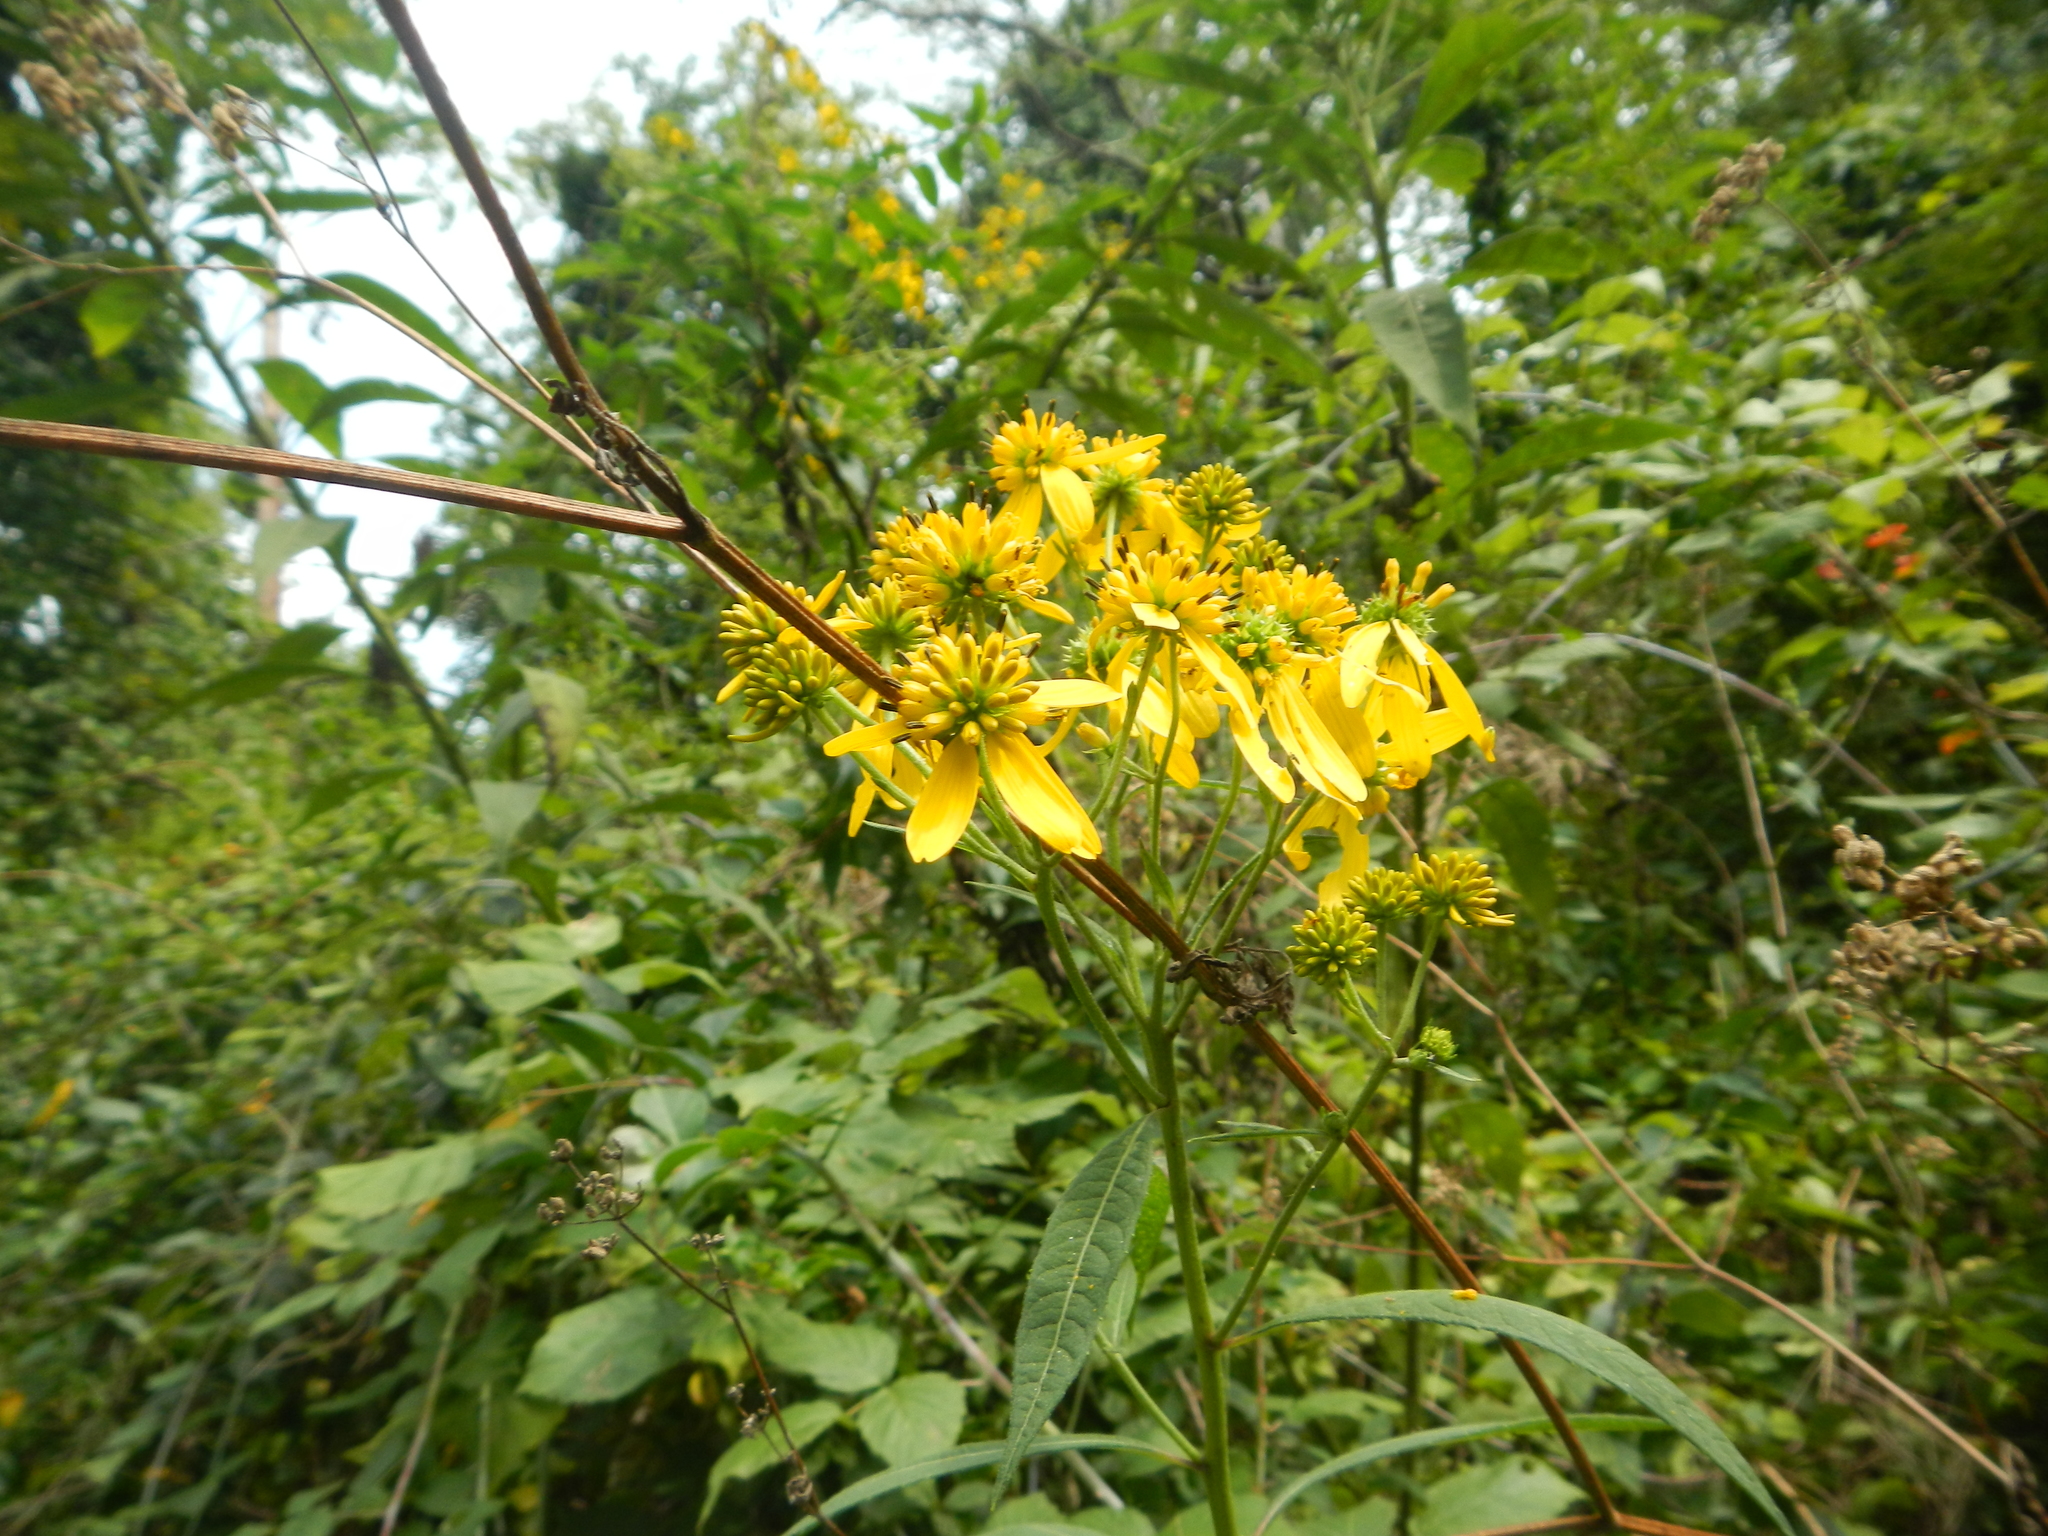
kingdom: Plantae
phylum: Tracheophyta
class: Magnoliopsida
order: Asterales
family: Asteraceae
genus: Verbesina
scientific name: Verbesina alternifolia
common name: Wingstem
